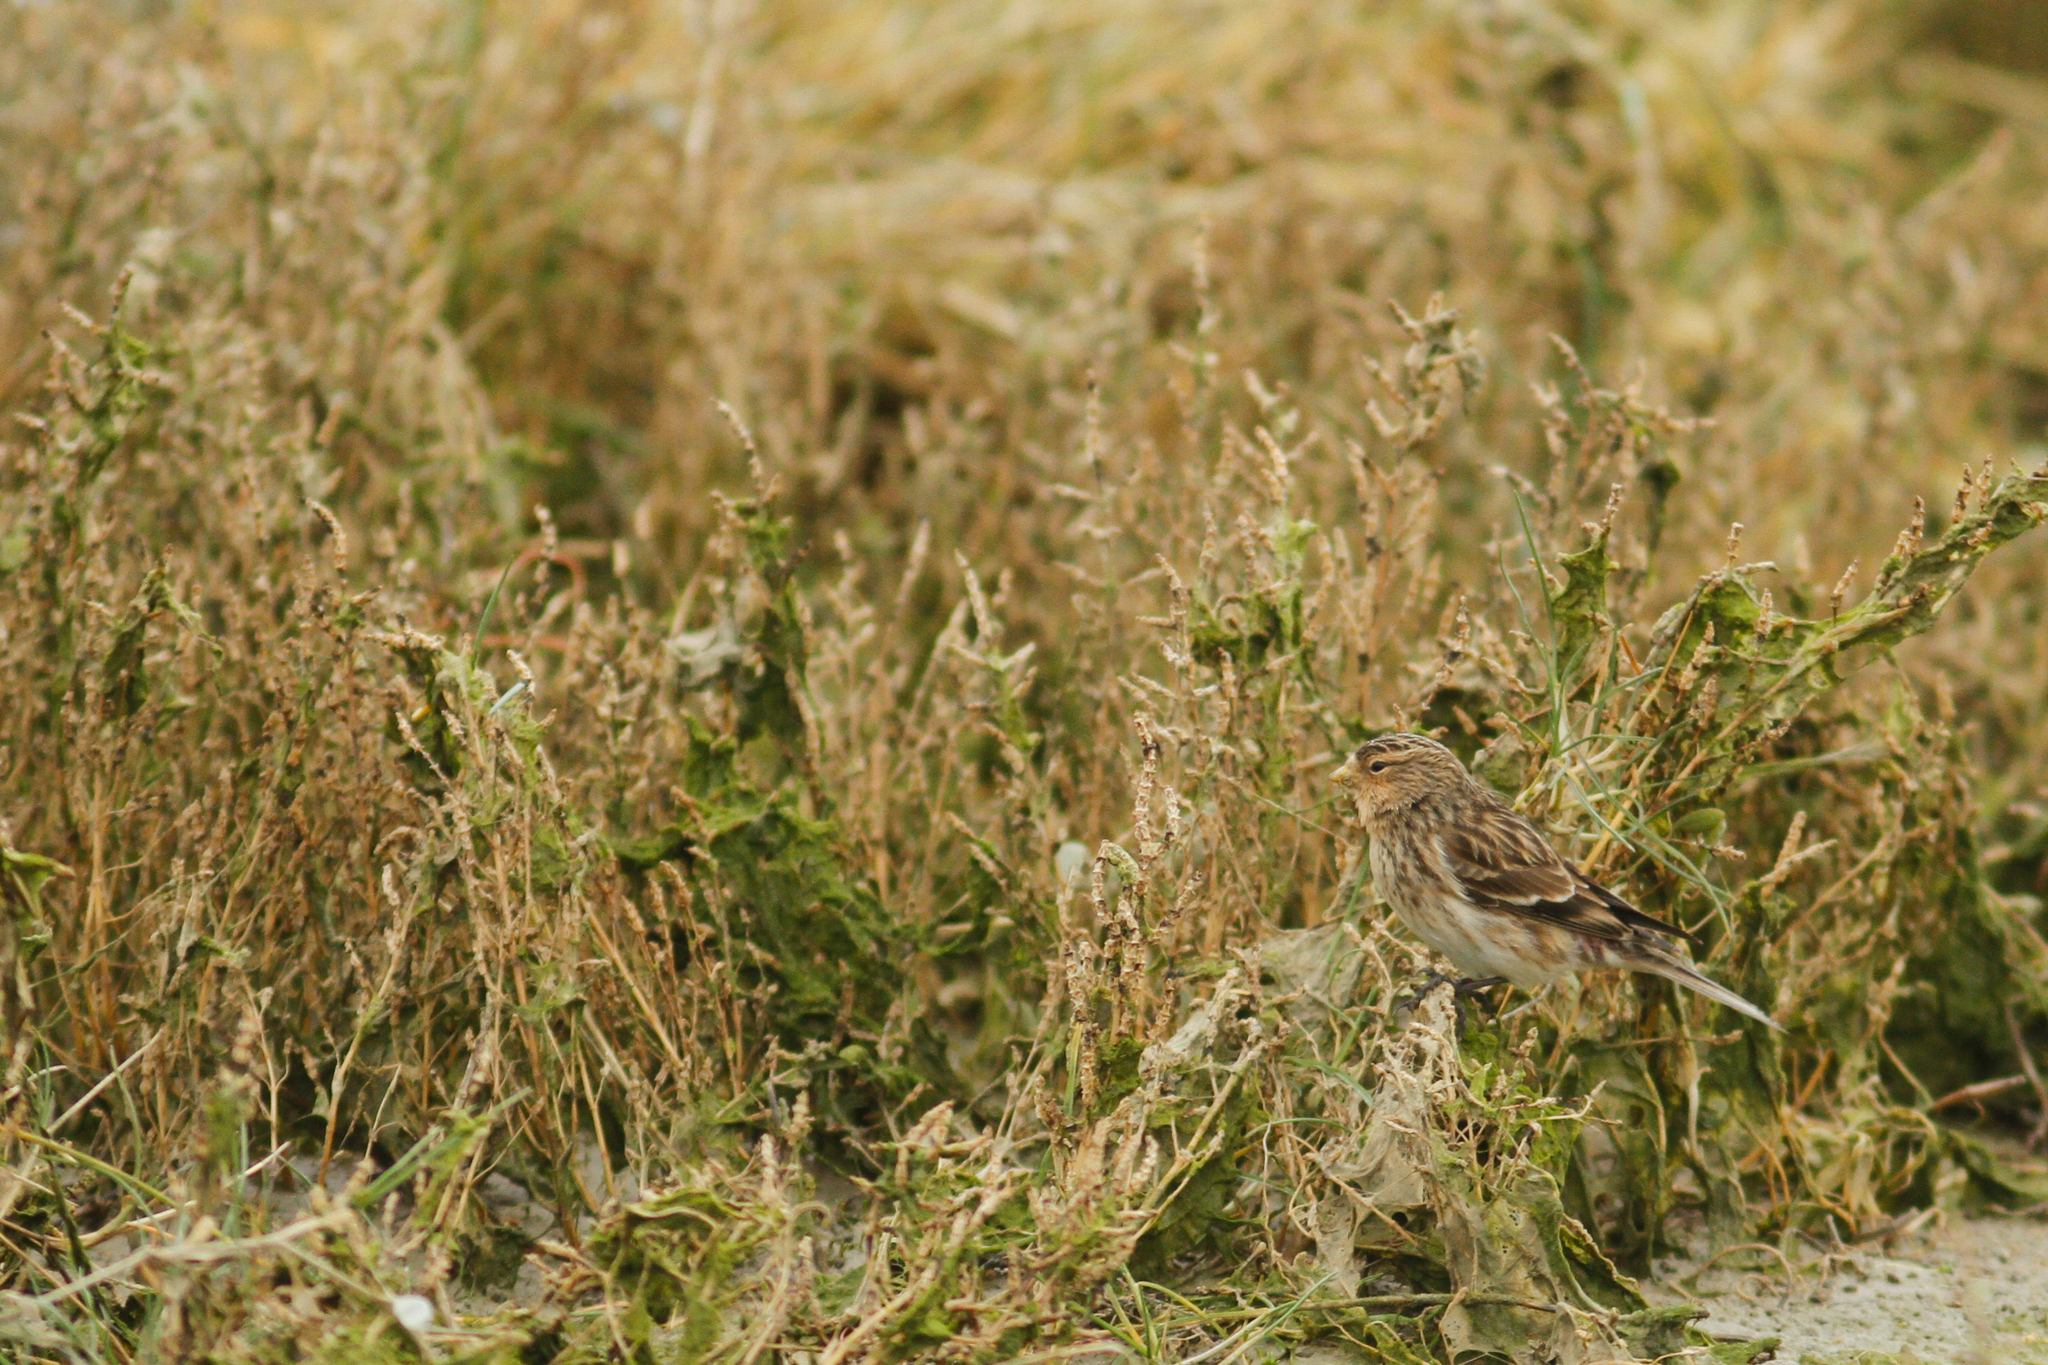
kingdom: Animalia
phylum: Chordata
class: Aves
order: Passeriformes
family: Fringillidae
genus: Linaria
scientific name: Linaria flavirostris
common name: Twite
